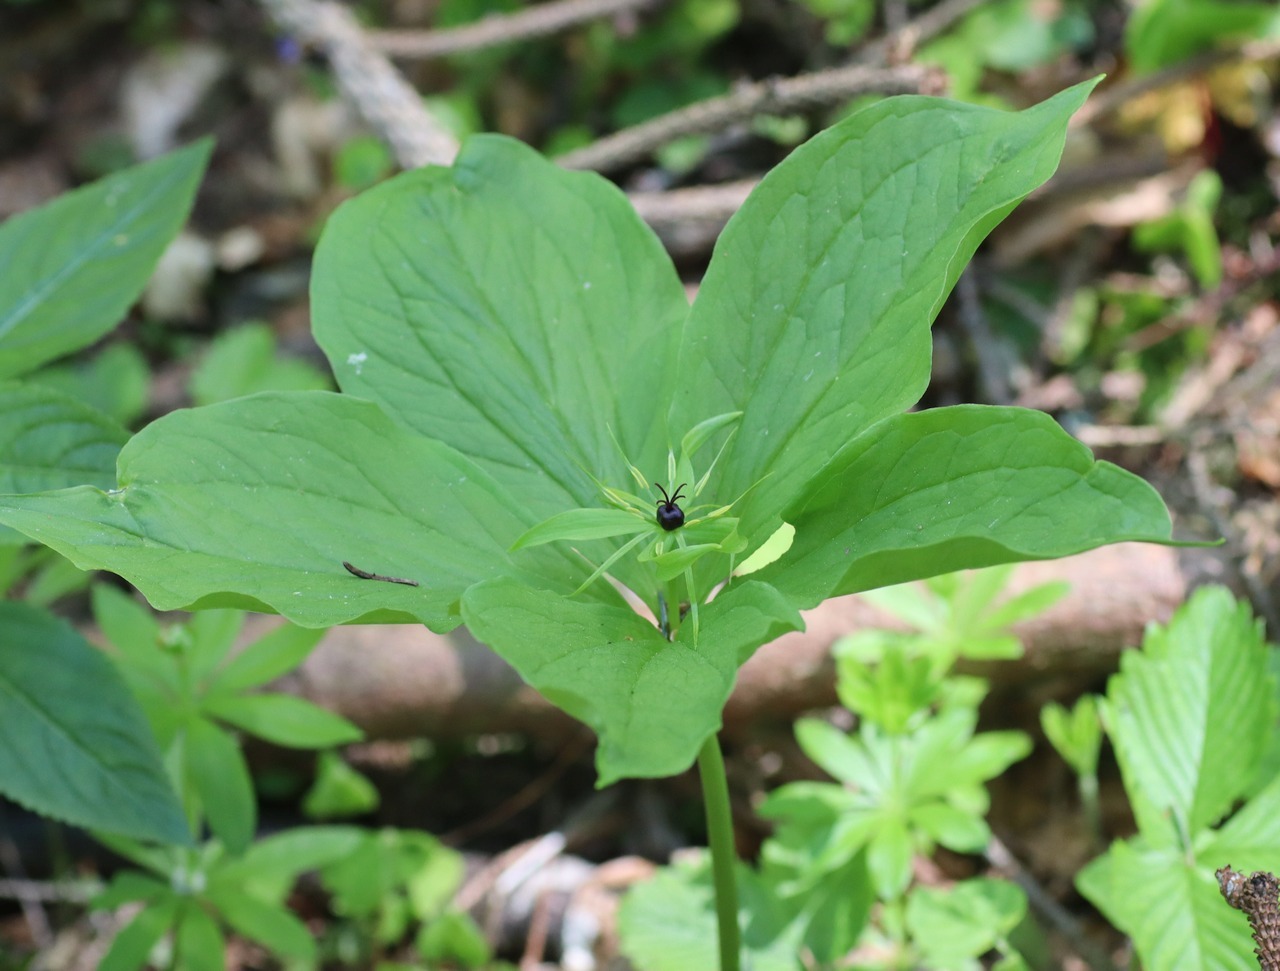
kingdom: Plantae
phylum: Tracheophyta
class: Liliopsida
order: Liliales
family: Melanthiaceae
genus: Paris
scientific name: Paris quadrifolia
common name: Herb-paris
